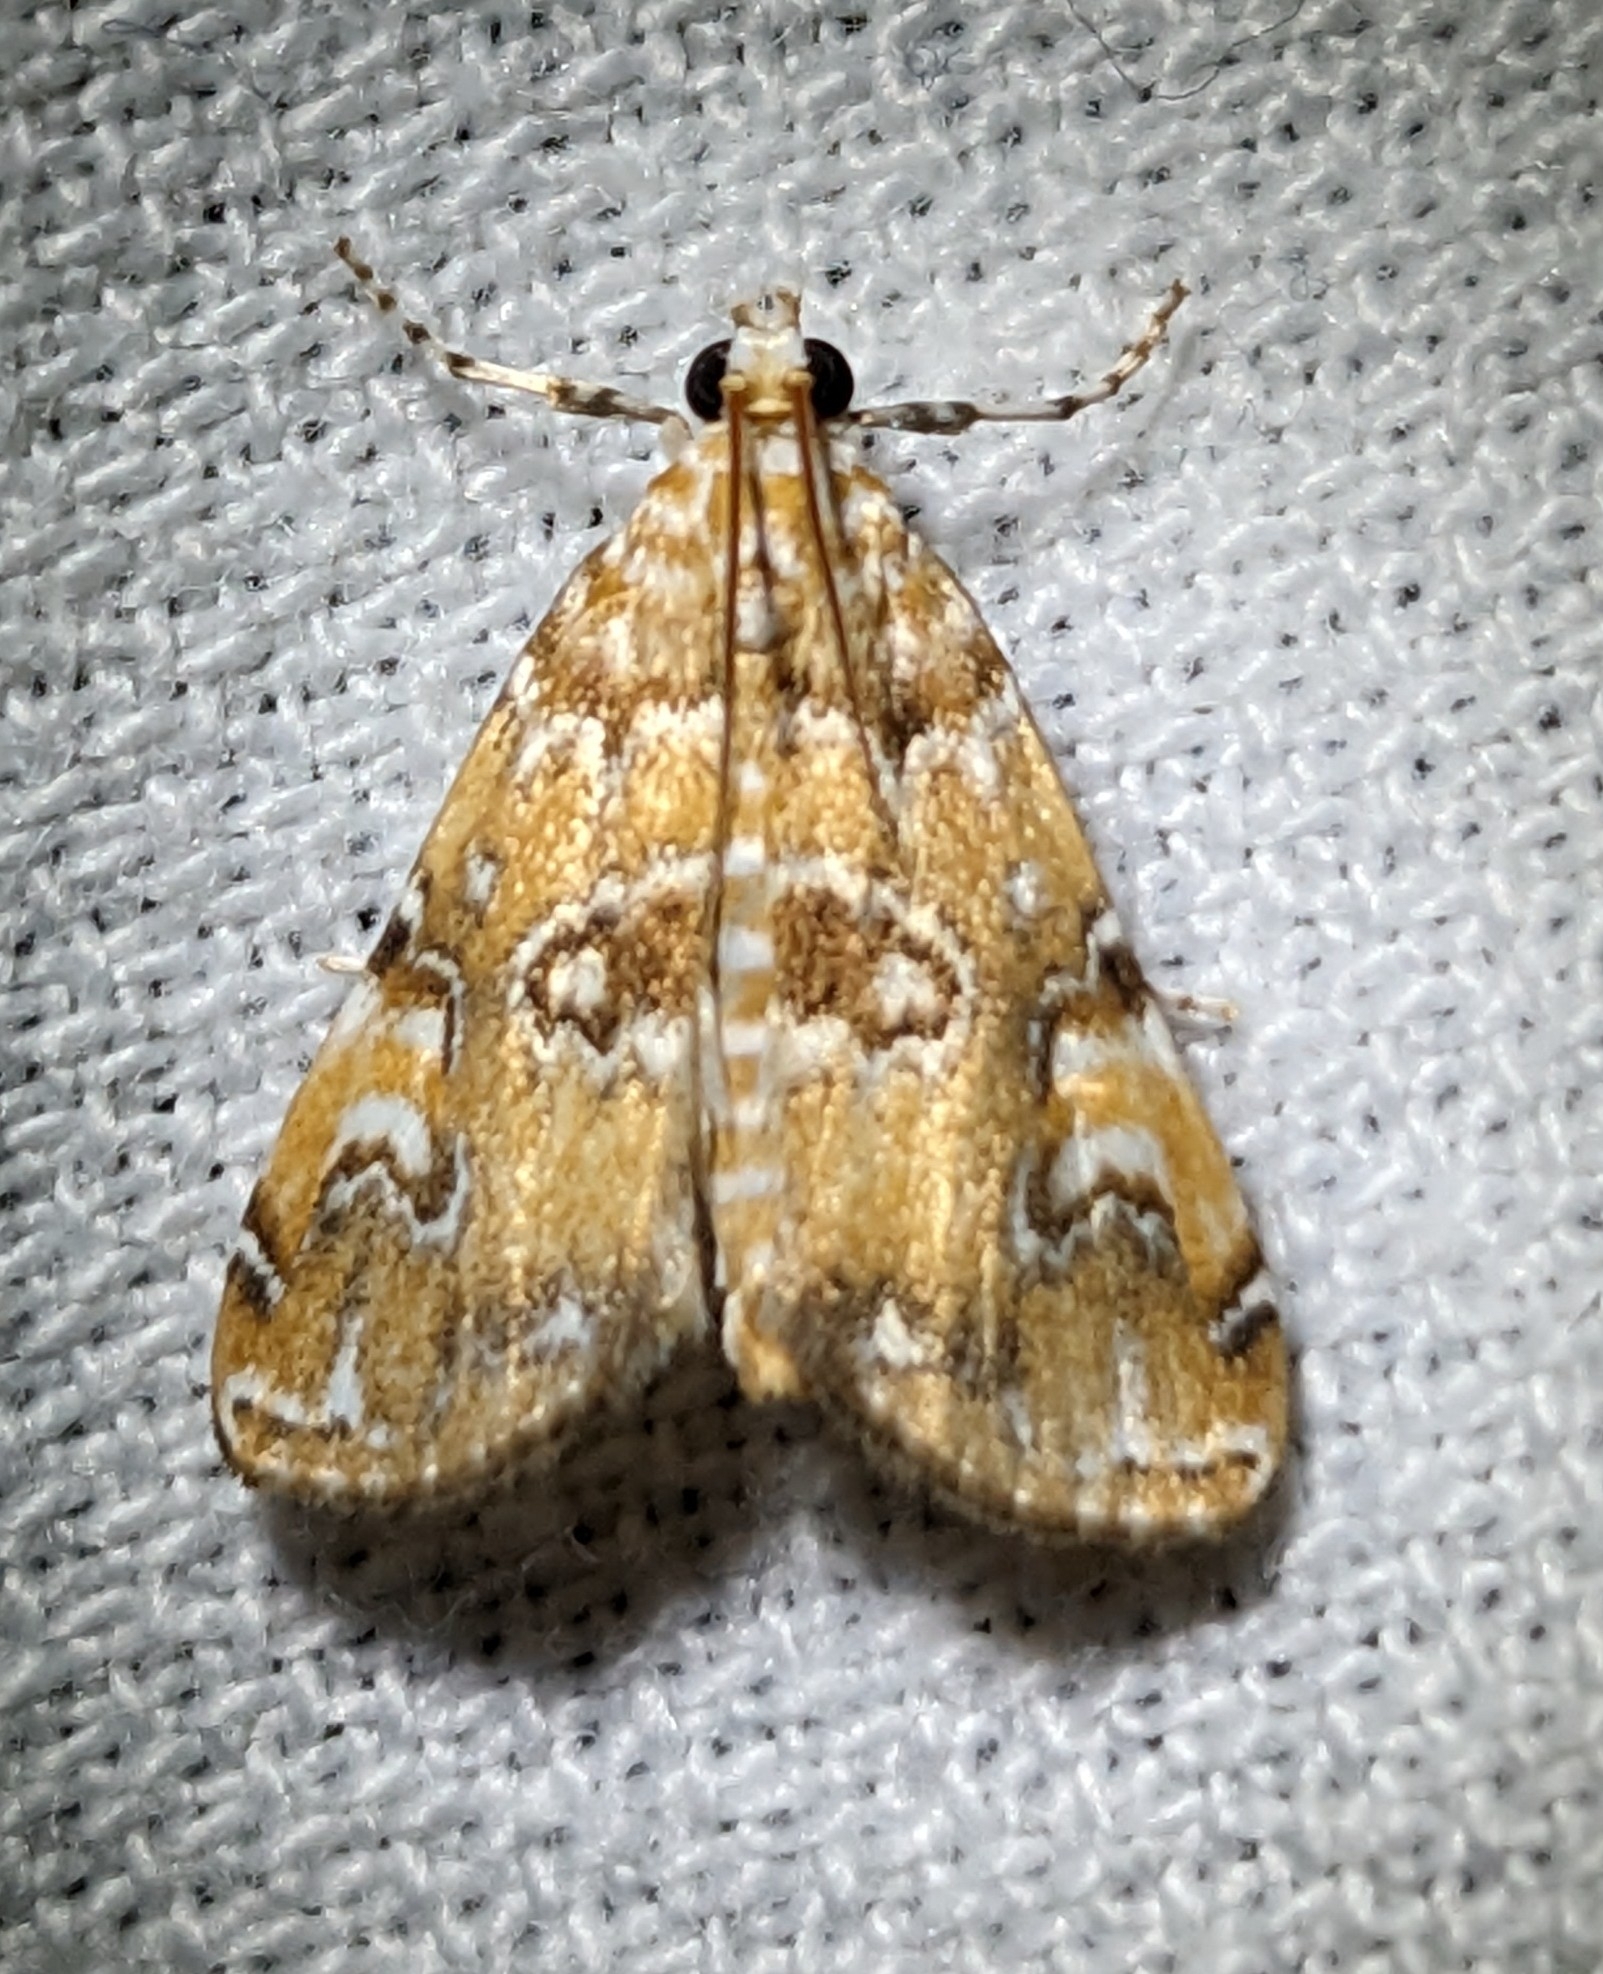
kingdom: Animalia
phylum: Arthropoda
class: Insecta
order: Lepidoptera
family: Crambidae
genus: Elophila
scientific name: Elophila gyralis
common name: Waterlily borer moth
